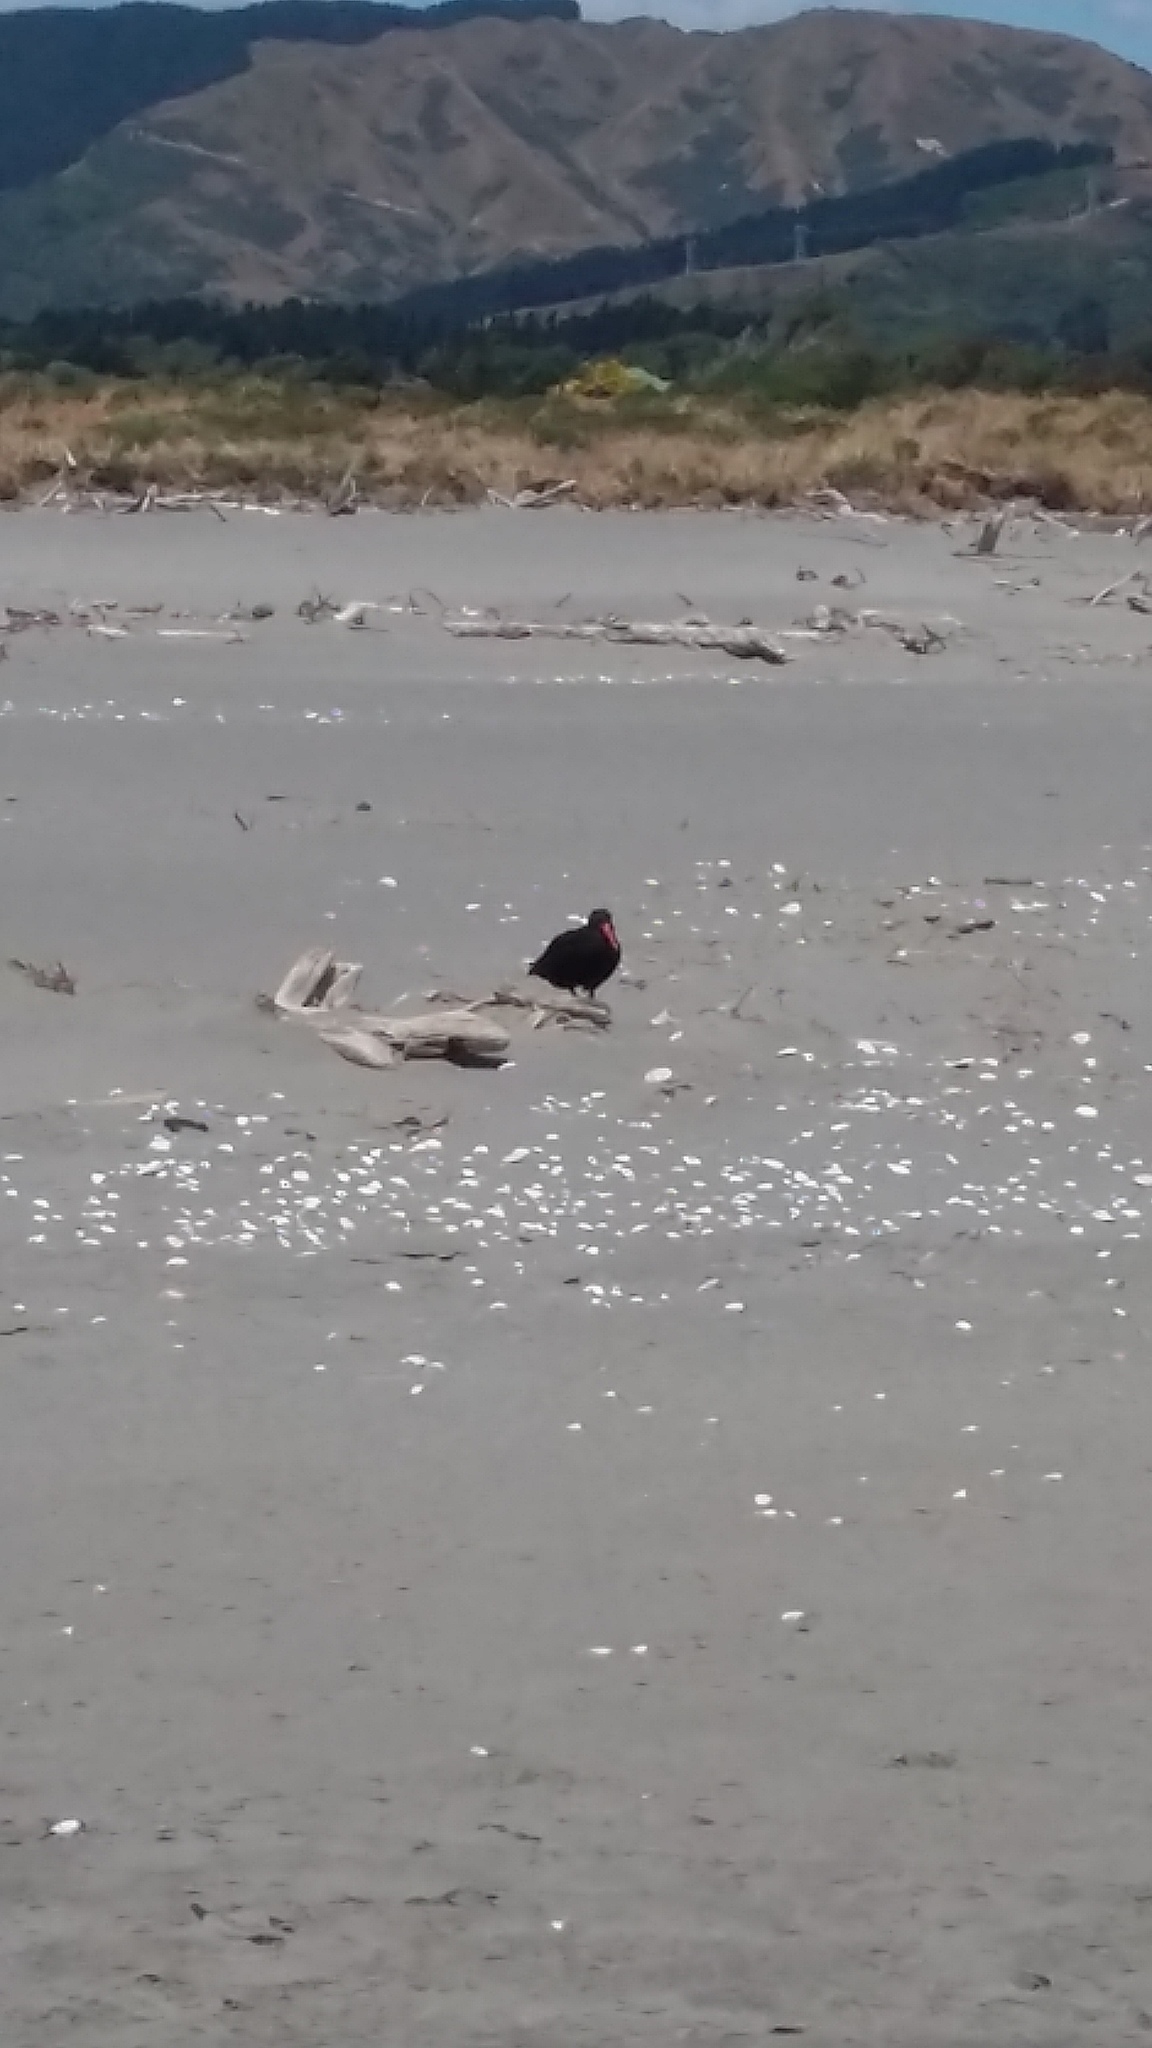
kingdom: Animalia
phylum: Chordata
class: Aves
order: Charadriiformes
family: Haematopodidae
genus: Haematopus
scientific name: Haematopus unicolor
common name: Variable oystercatcher
